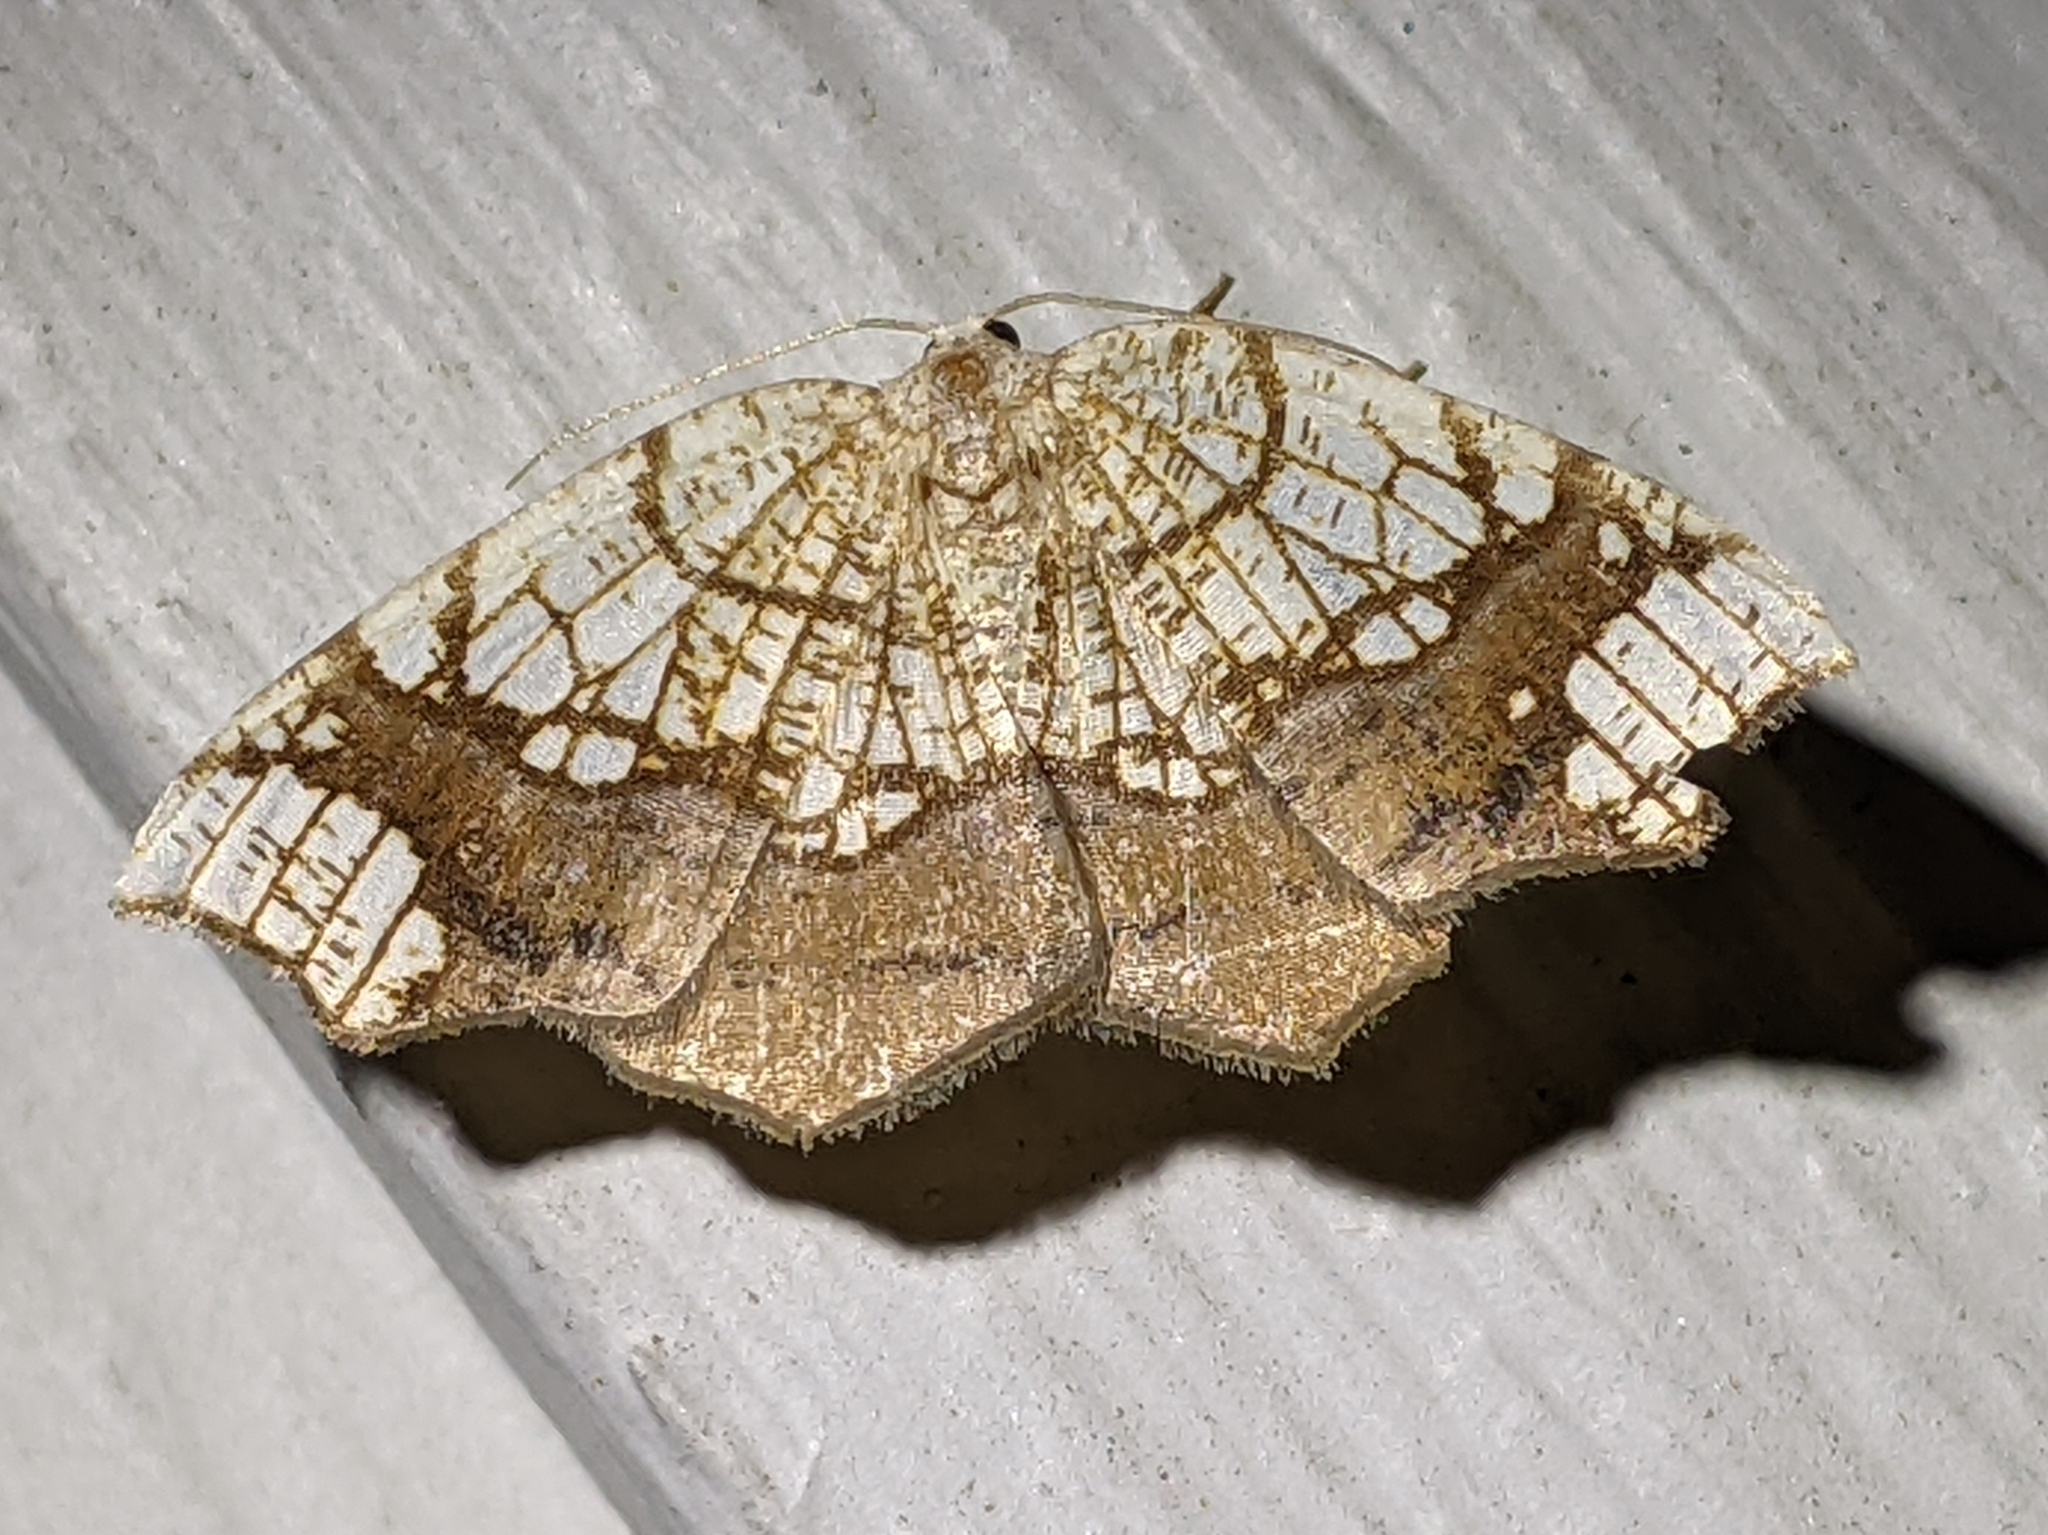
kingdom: Animalia
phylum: Arthropoda
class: Insecta
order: Lepidoptera
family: Geometridae
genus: Nematocampa
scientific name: Nematocampa resistaria
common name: Horned spanworm moth
